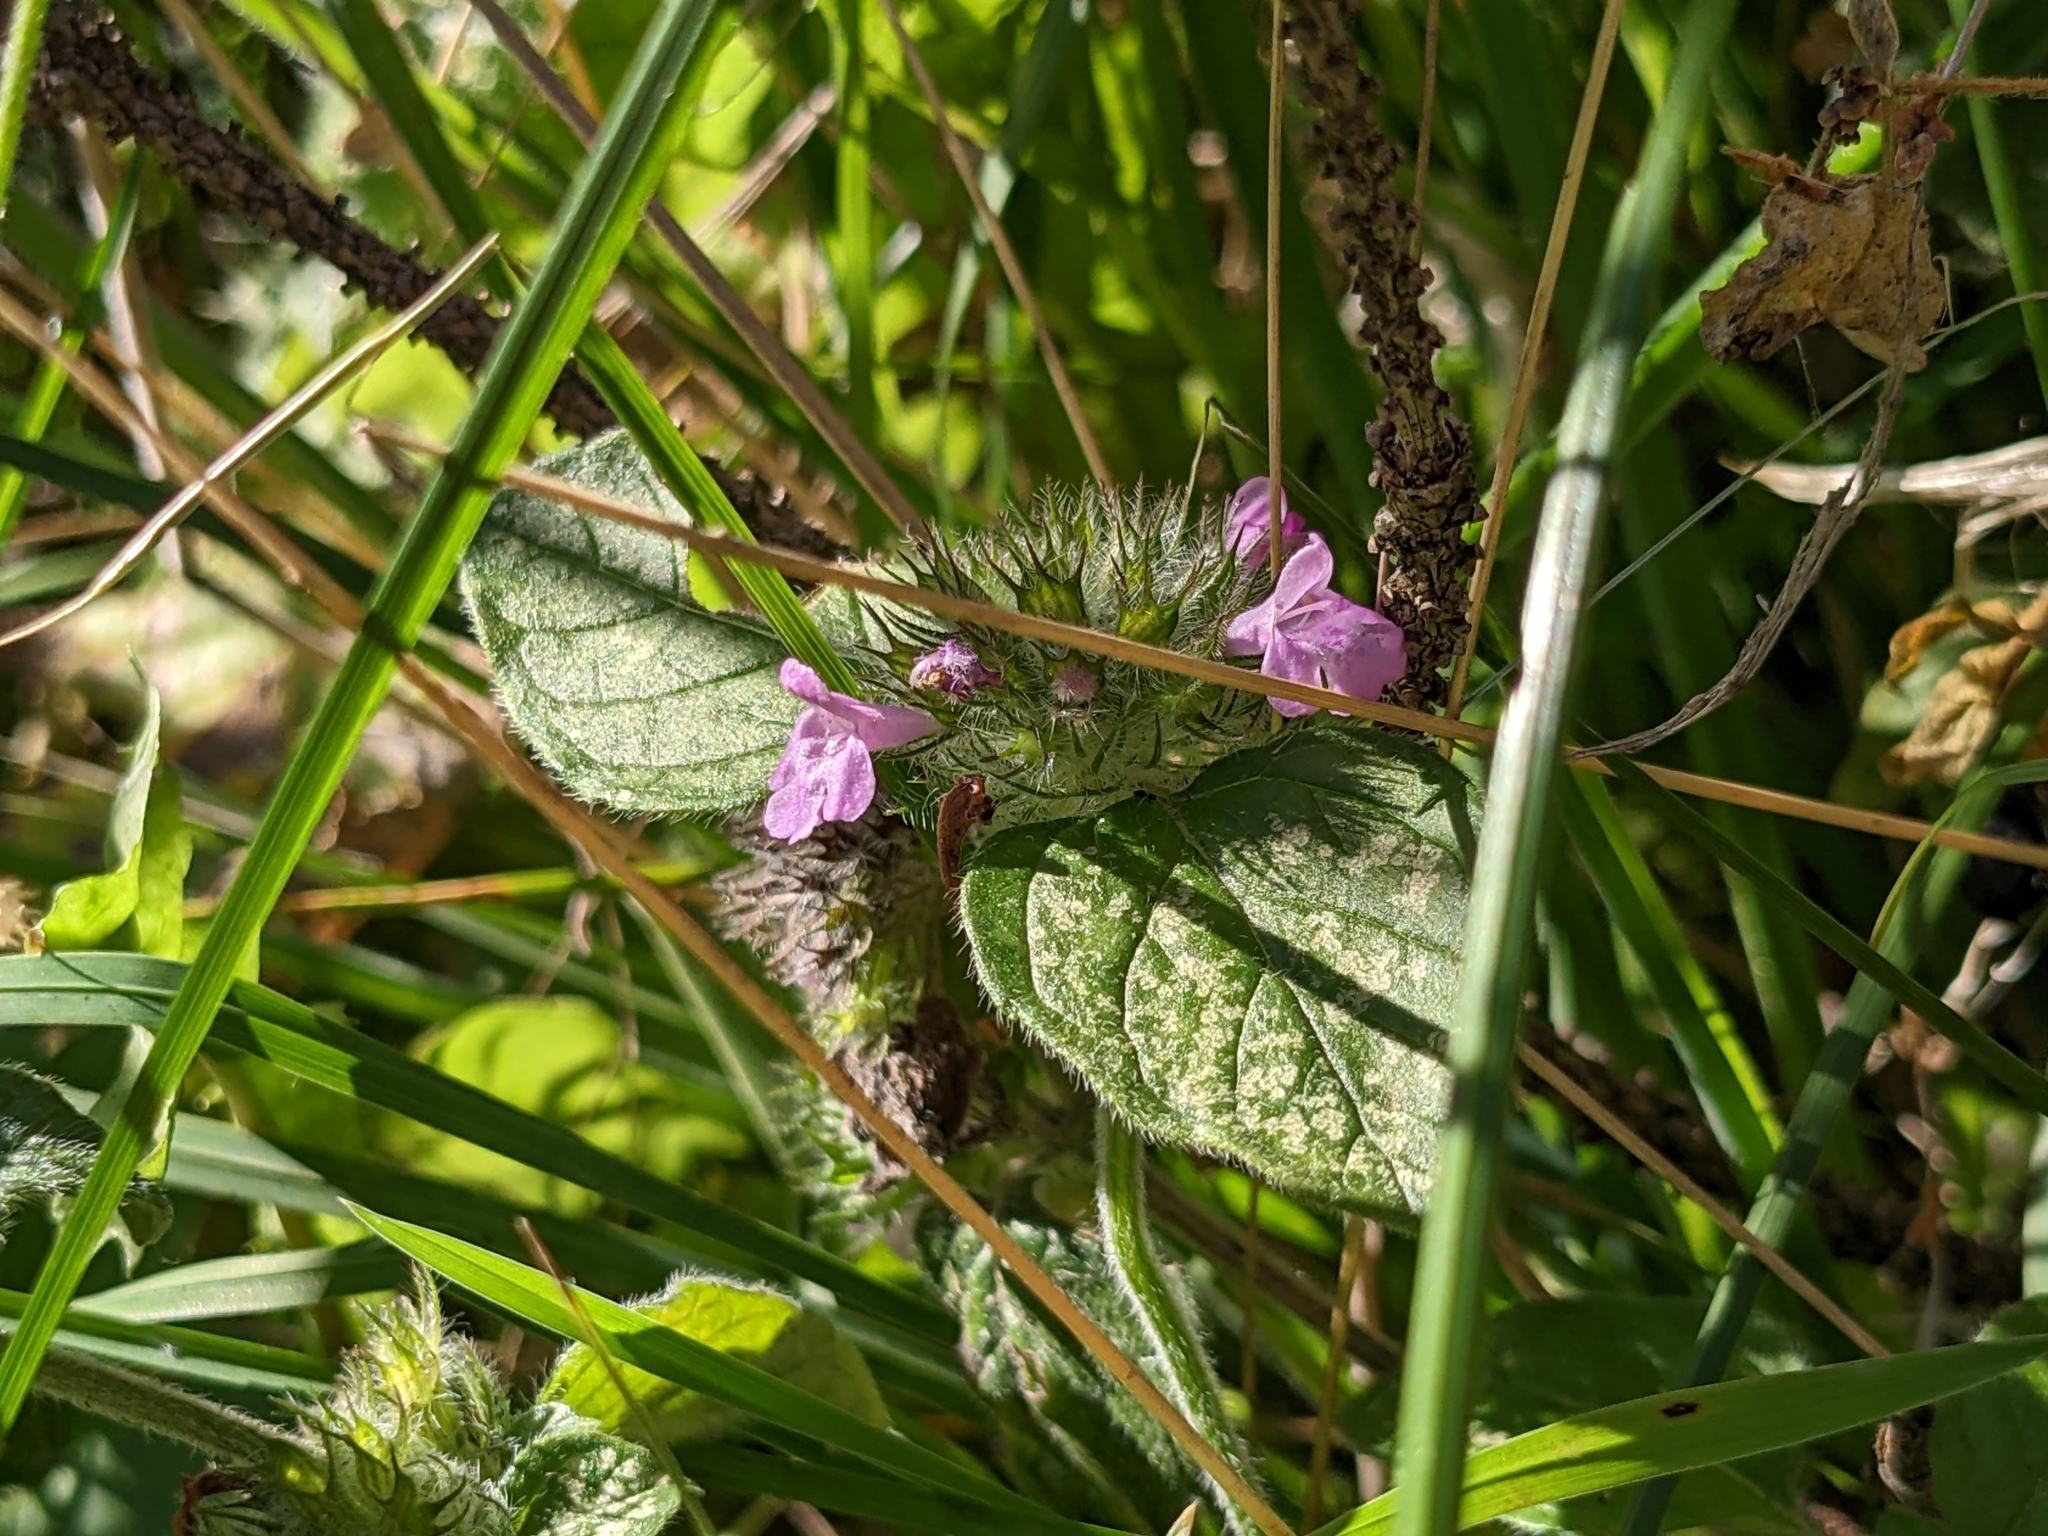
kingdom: Plantae
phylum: Tracheophyta
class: Magnoliopsida
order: Lamiales
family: Lamiaceae
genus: Clinopodium
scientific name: Clinopodium vulgare
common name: Wild basil
